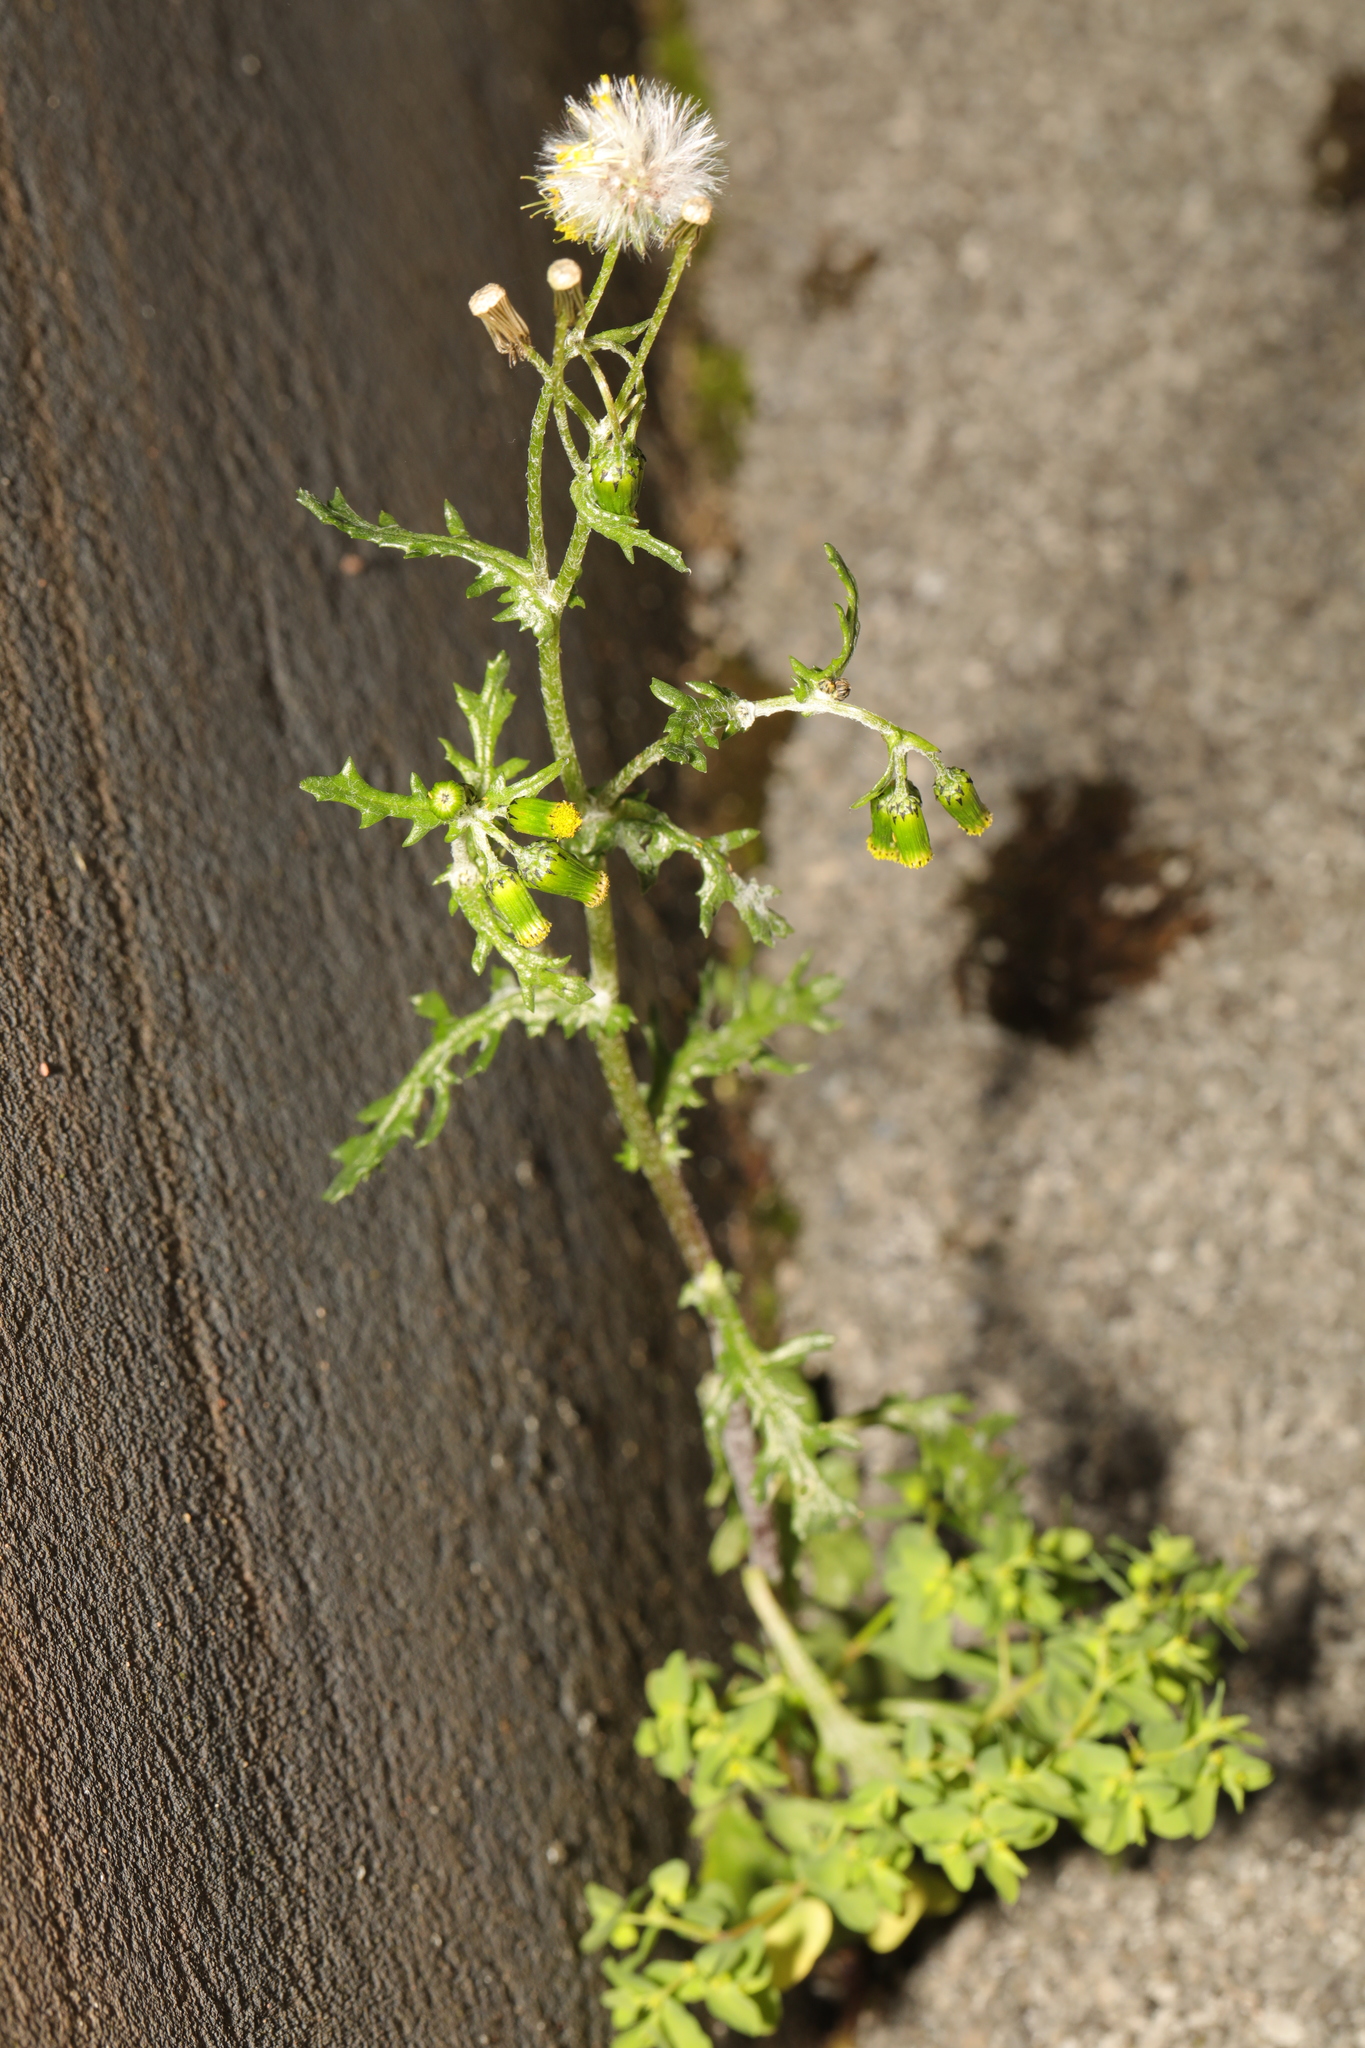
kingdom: Plantae
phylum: Tracheophyta
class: Magnoliopsida
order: Asterales
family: Asteraceae
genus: Senecio
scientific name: Senecio vulgaris
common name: Old-man-in-the-spring
